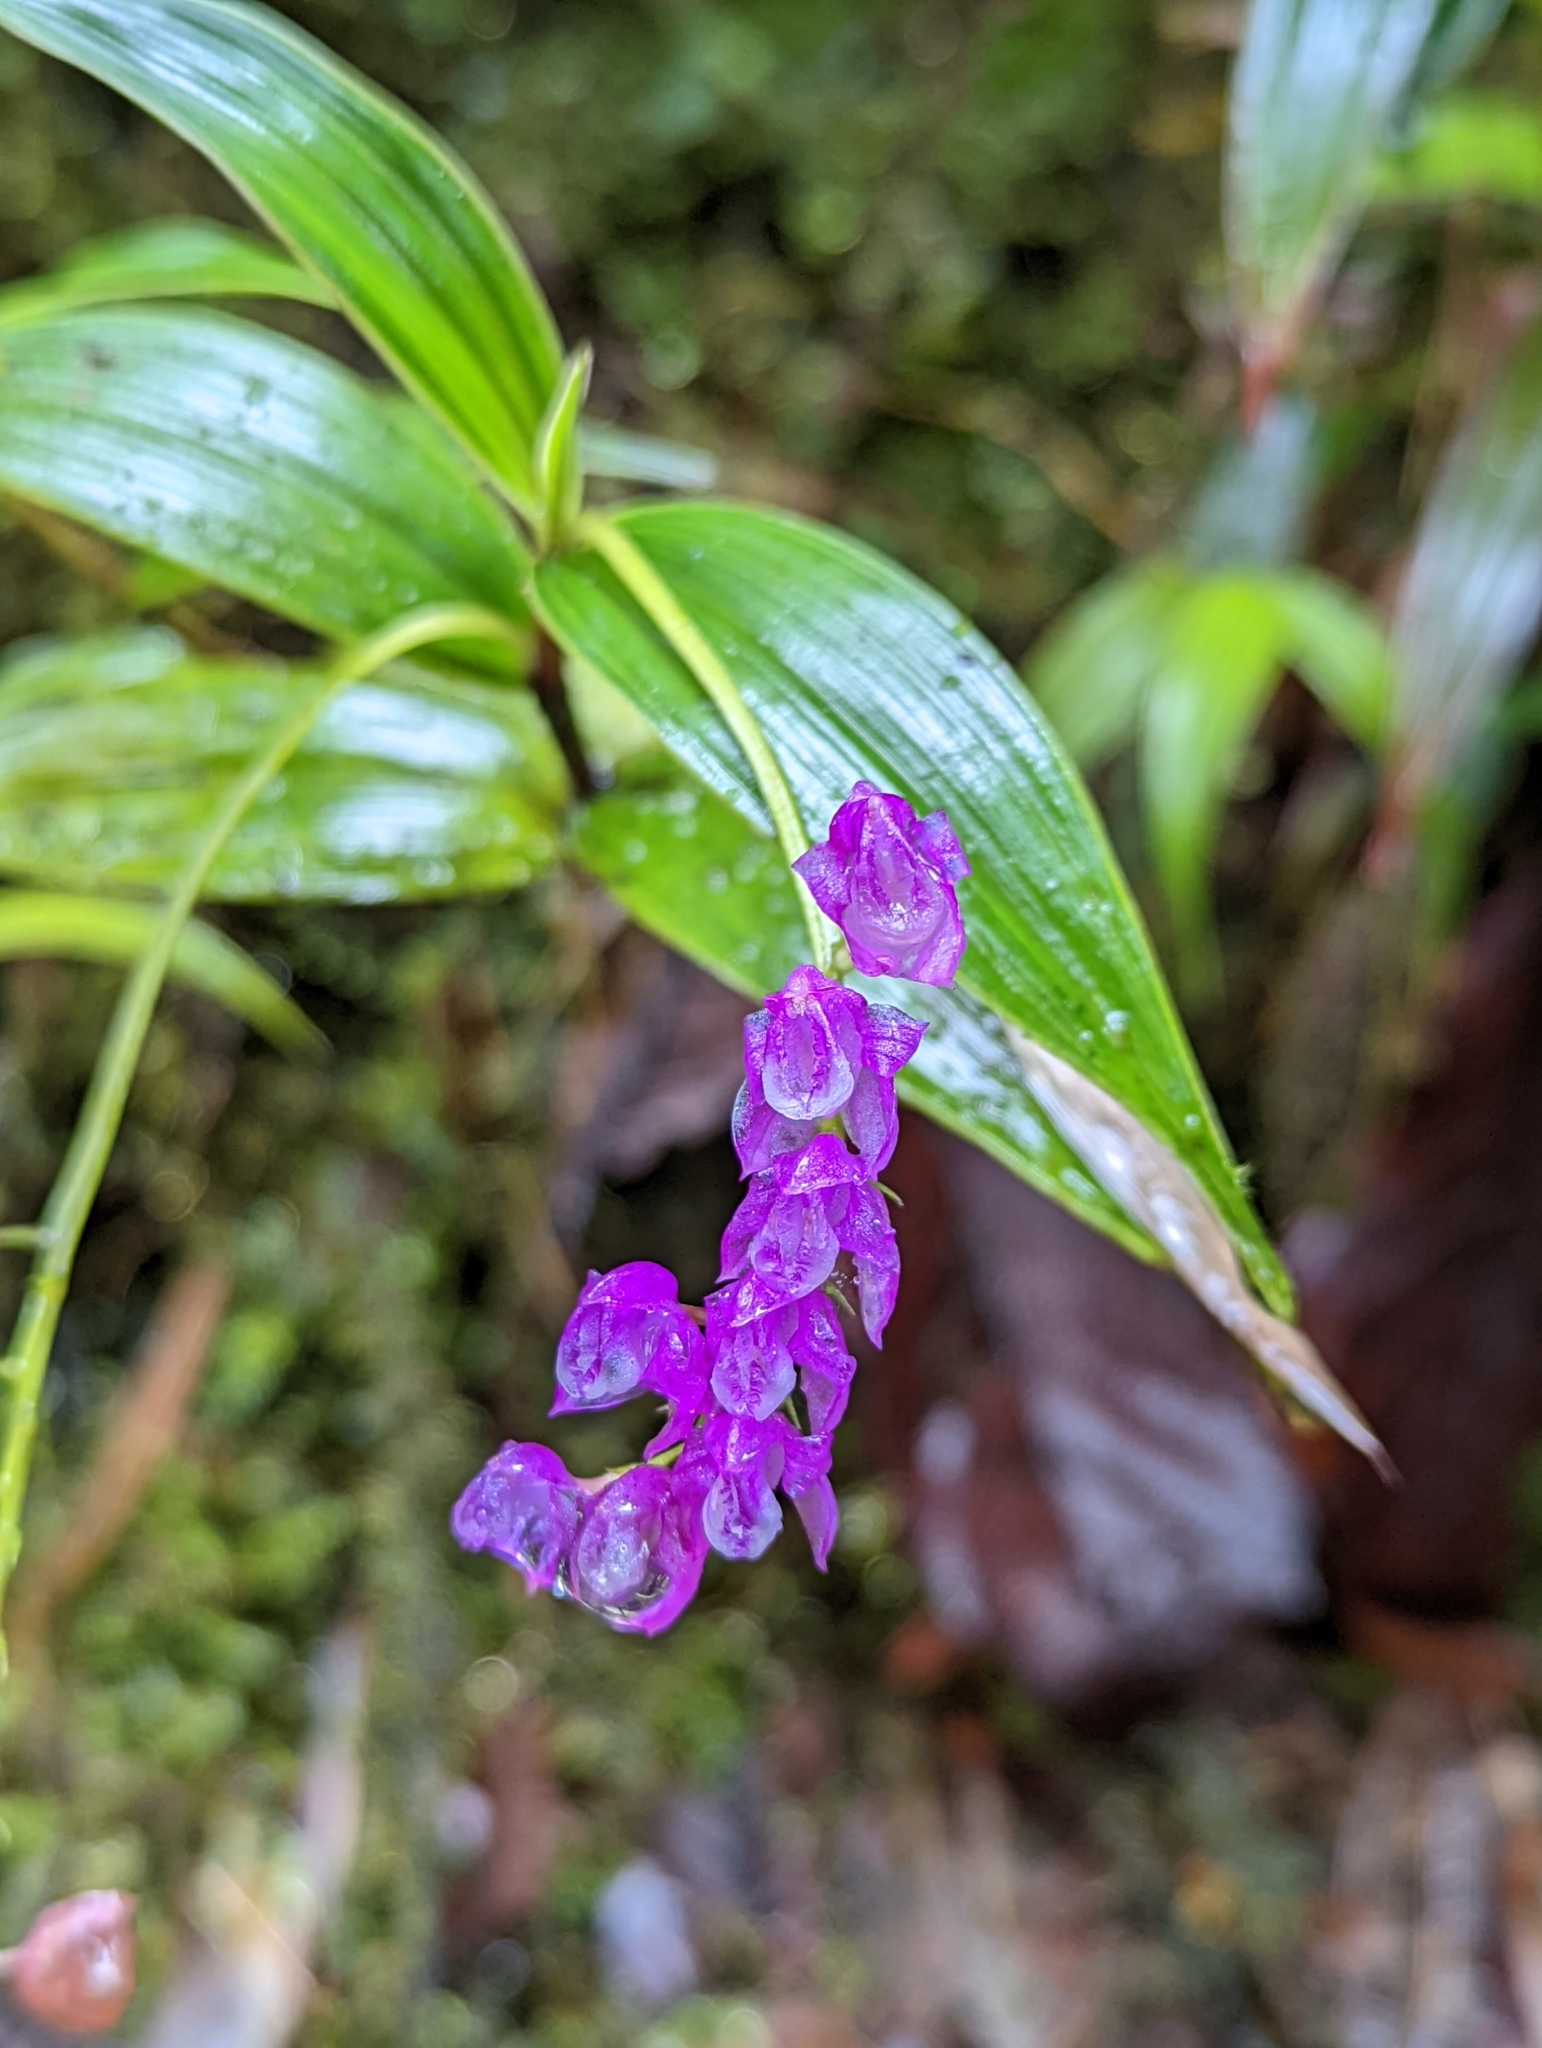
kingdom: Plantae
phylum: Tracheophyta
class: Liliopsida
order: Asparagales
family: Orchidaceae
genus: Sertifera
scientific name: Sertifera purpurea
